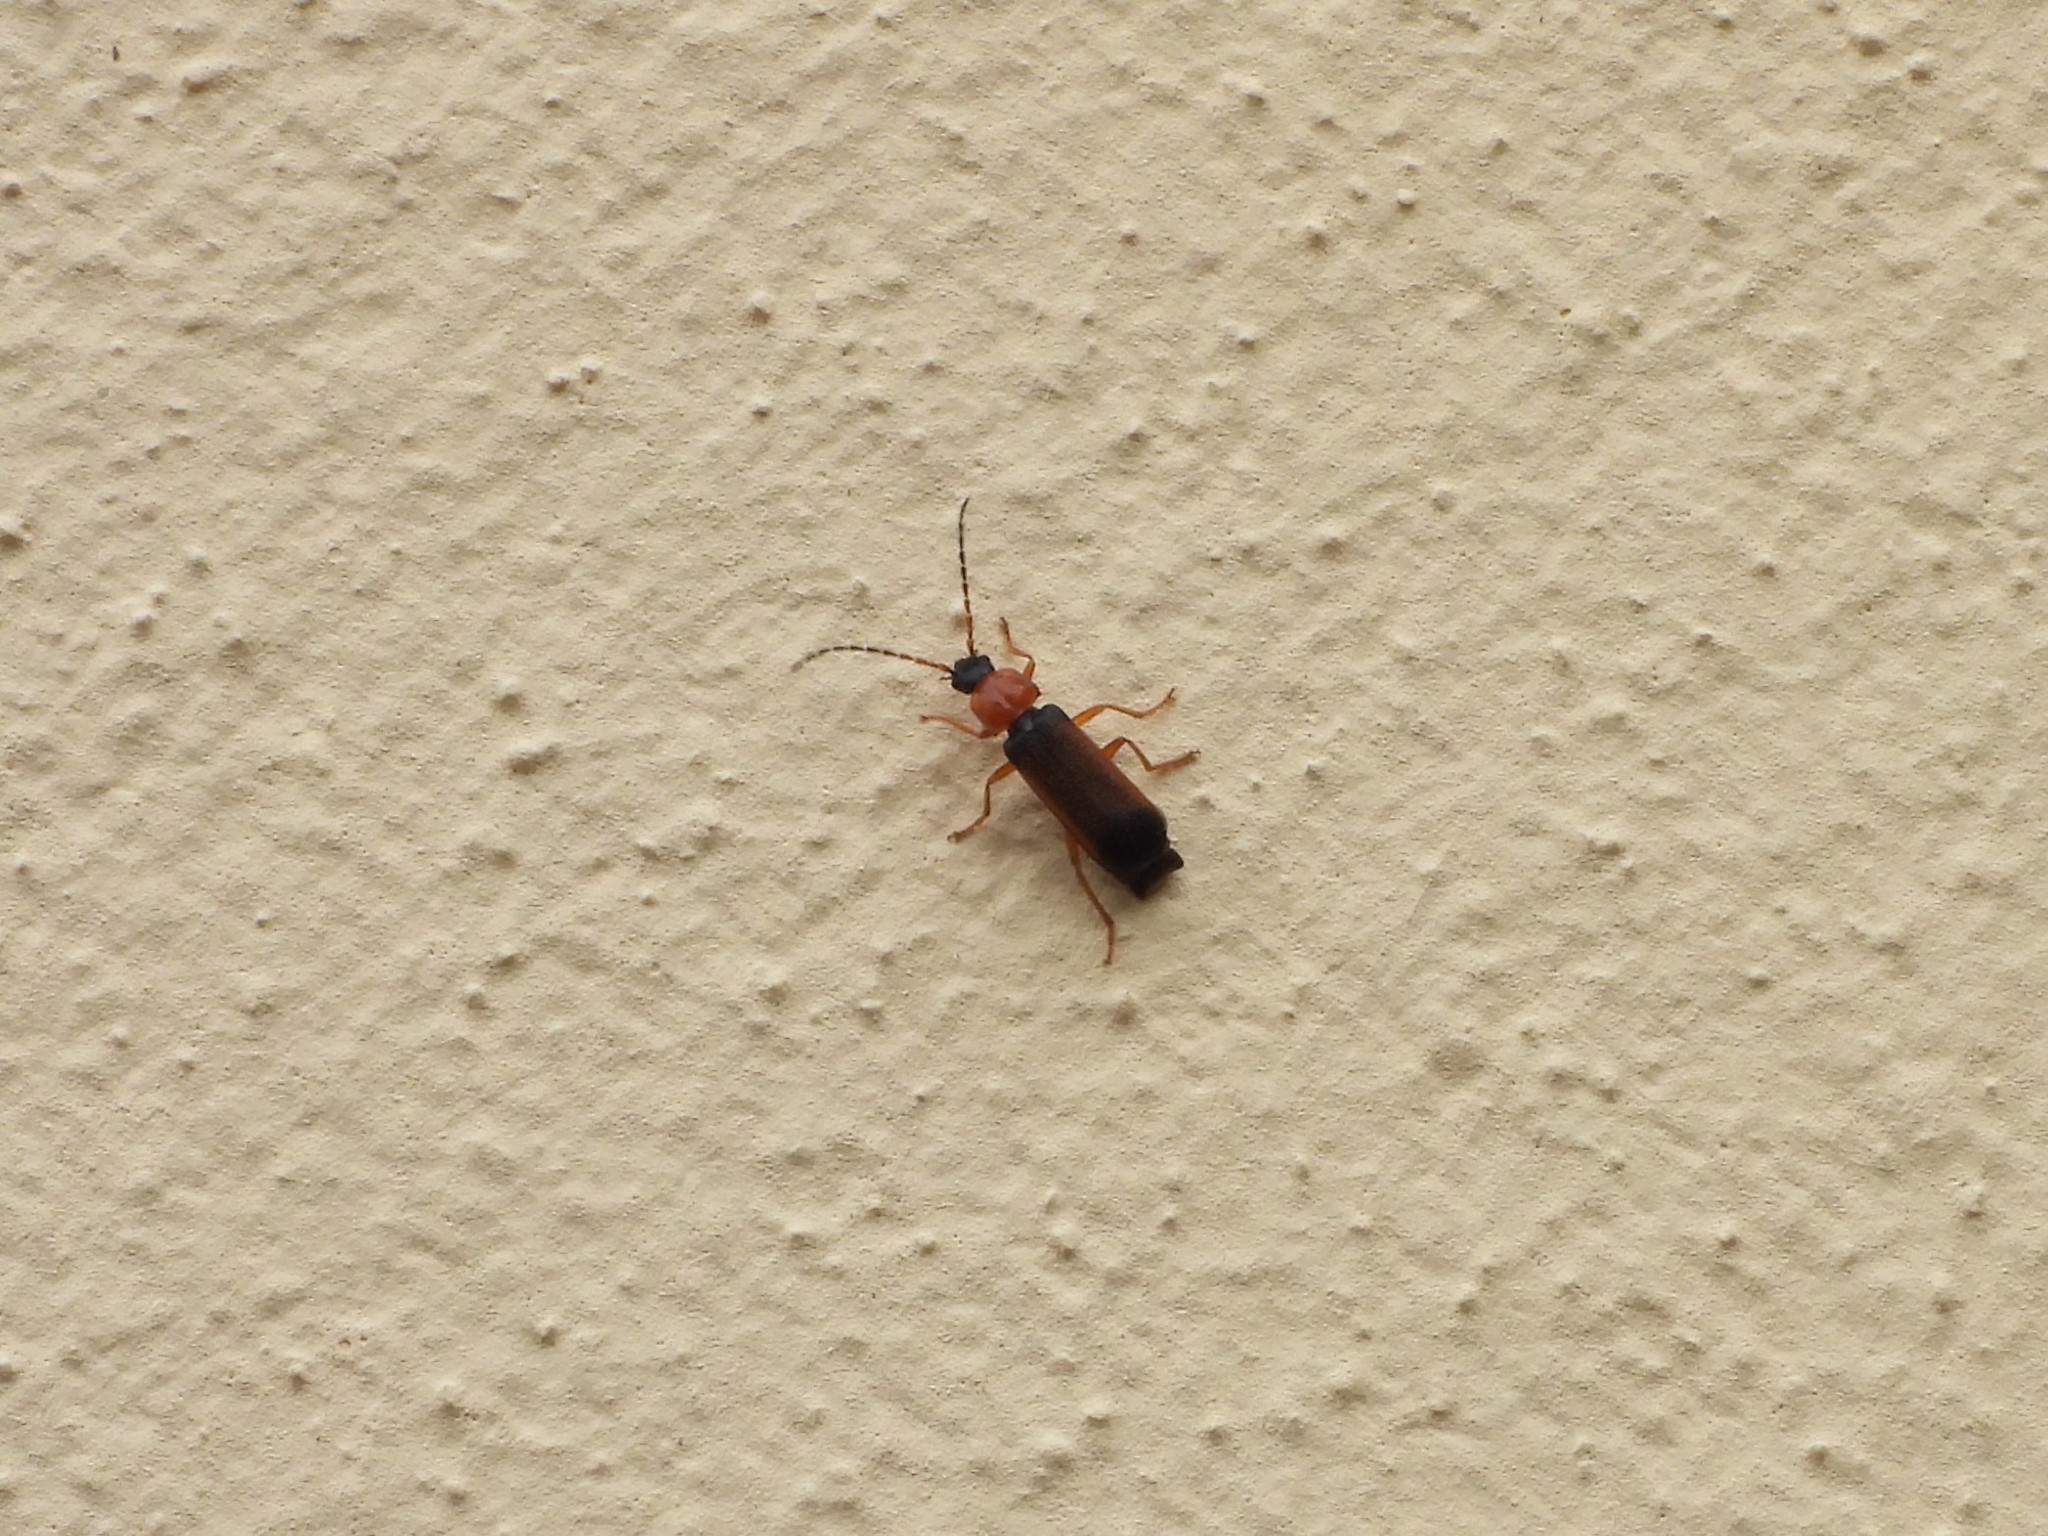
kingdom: Animalia
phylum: Arthropoda
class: Insecta
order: Coleoptera
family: Cantharidae
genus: Cratosilis
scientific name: Cratosilis laeta
